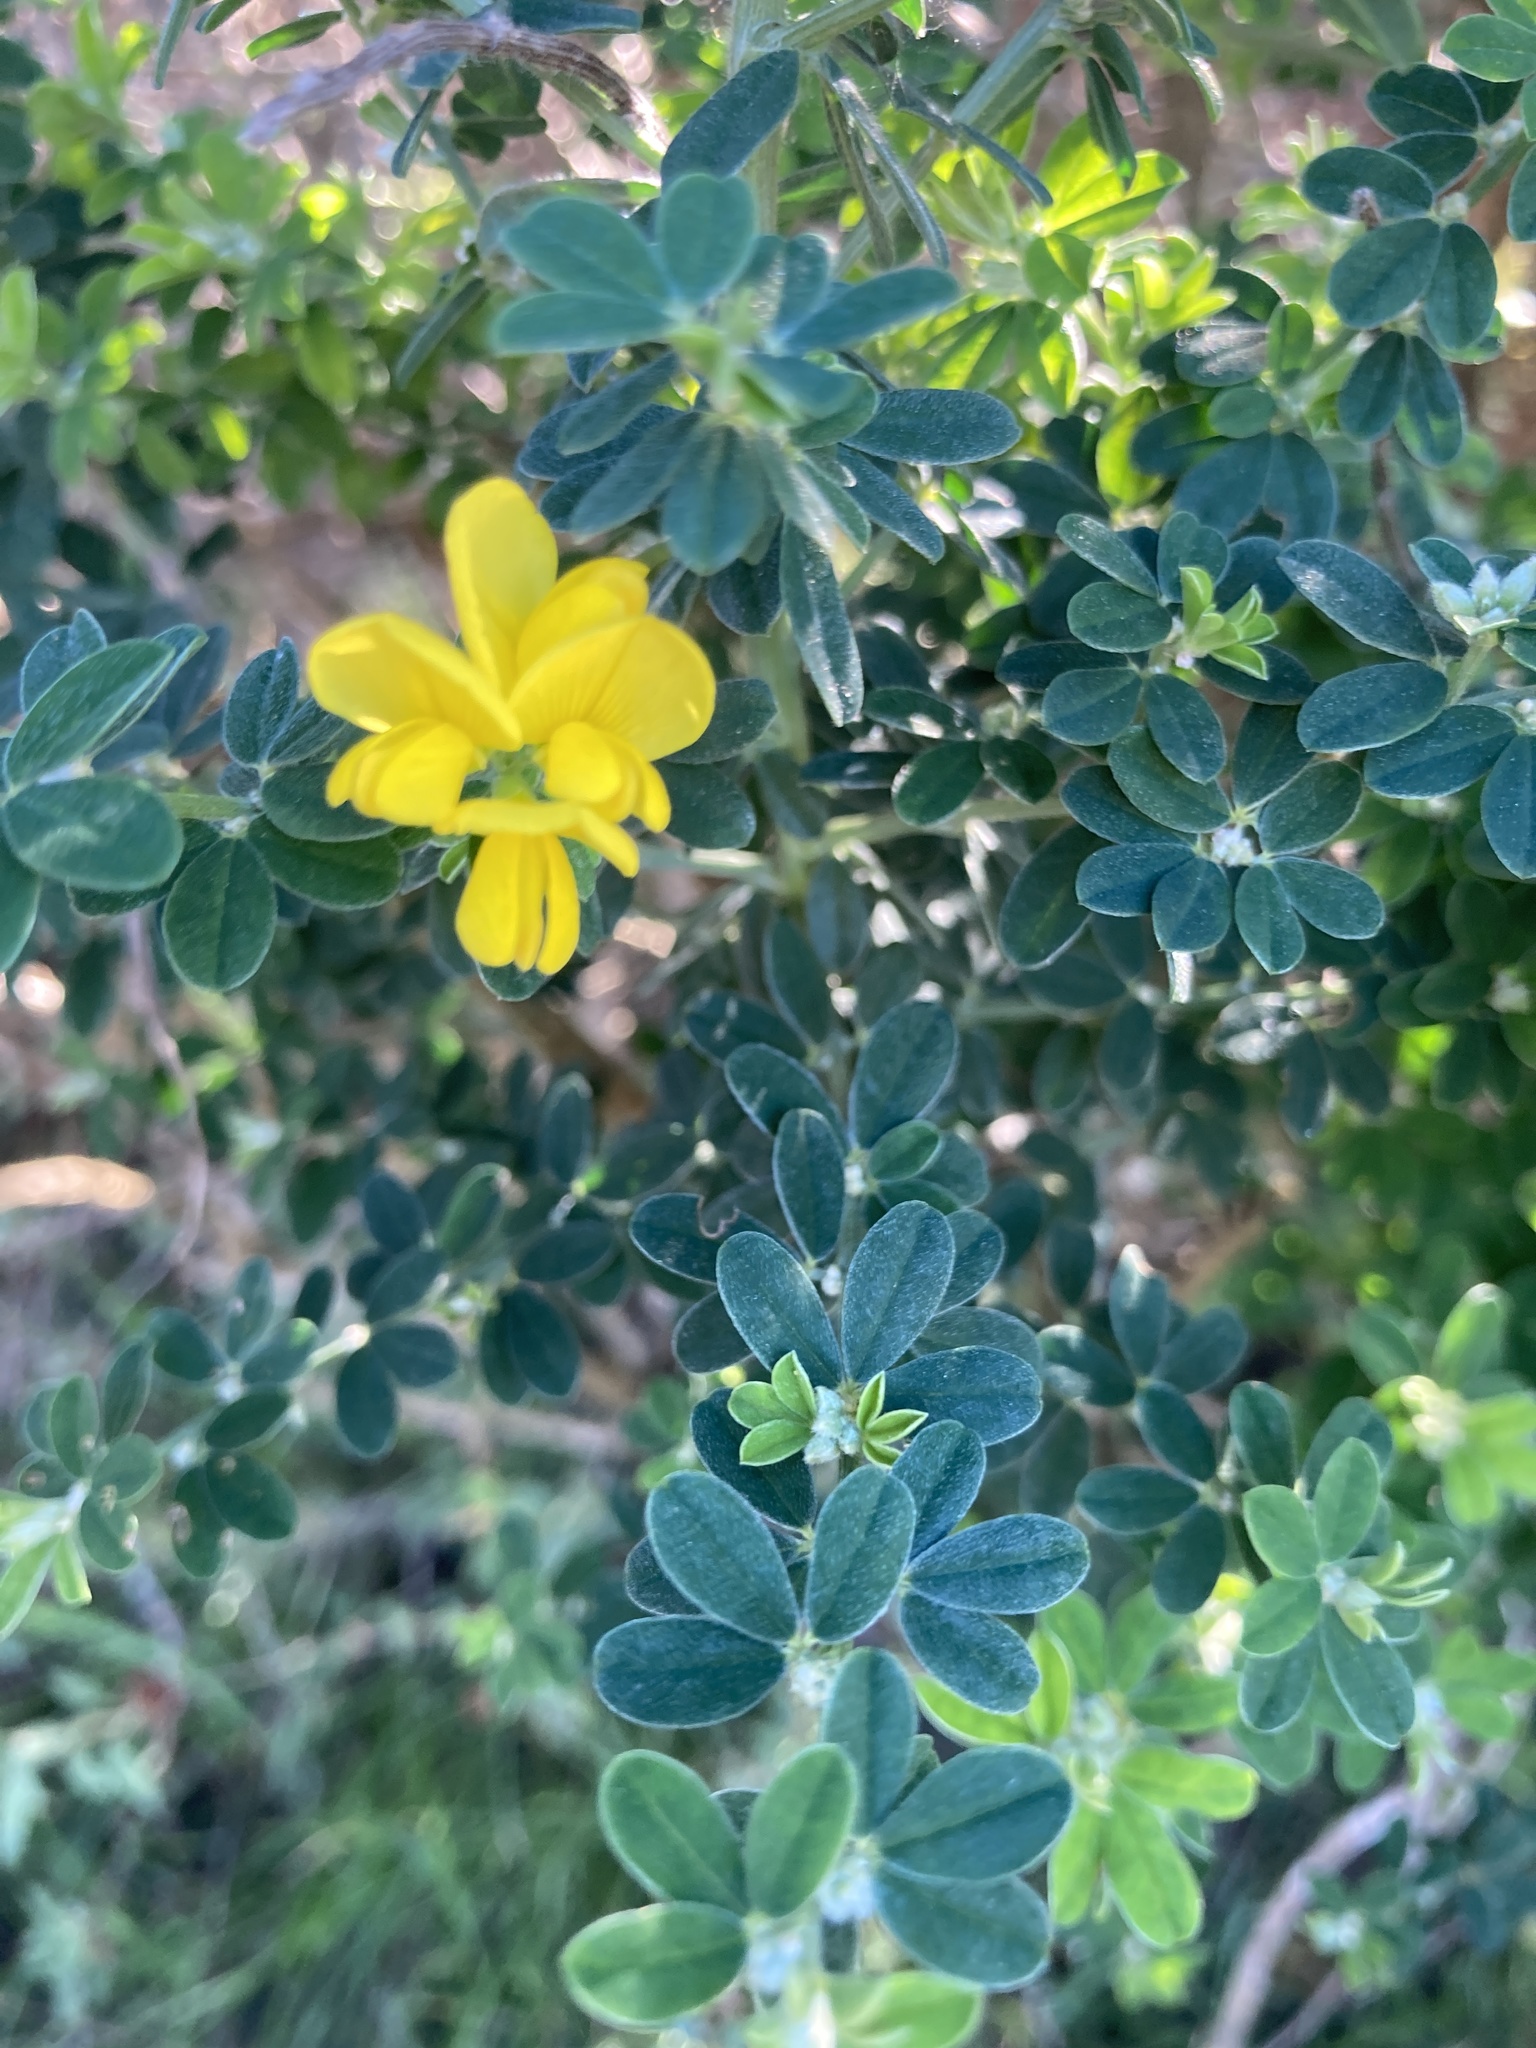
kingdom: Plantae
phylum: Tracheophyta
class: Magnoliopsida
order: Fabales
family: Fabaceae
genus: Genista
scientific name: Genista monspessulana
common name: Montpellier broom
